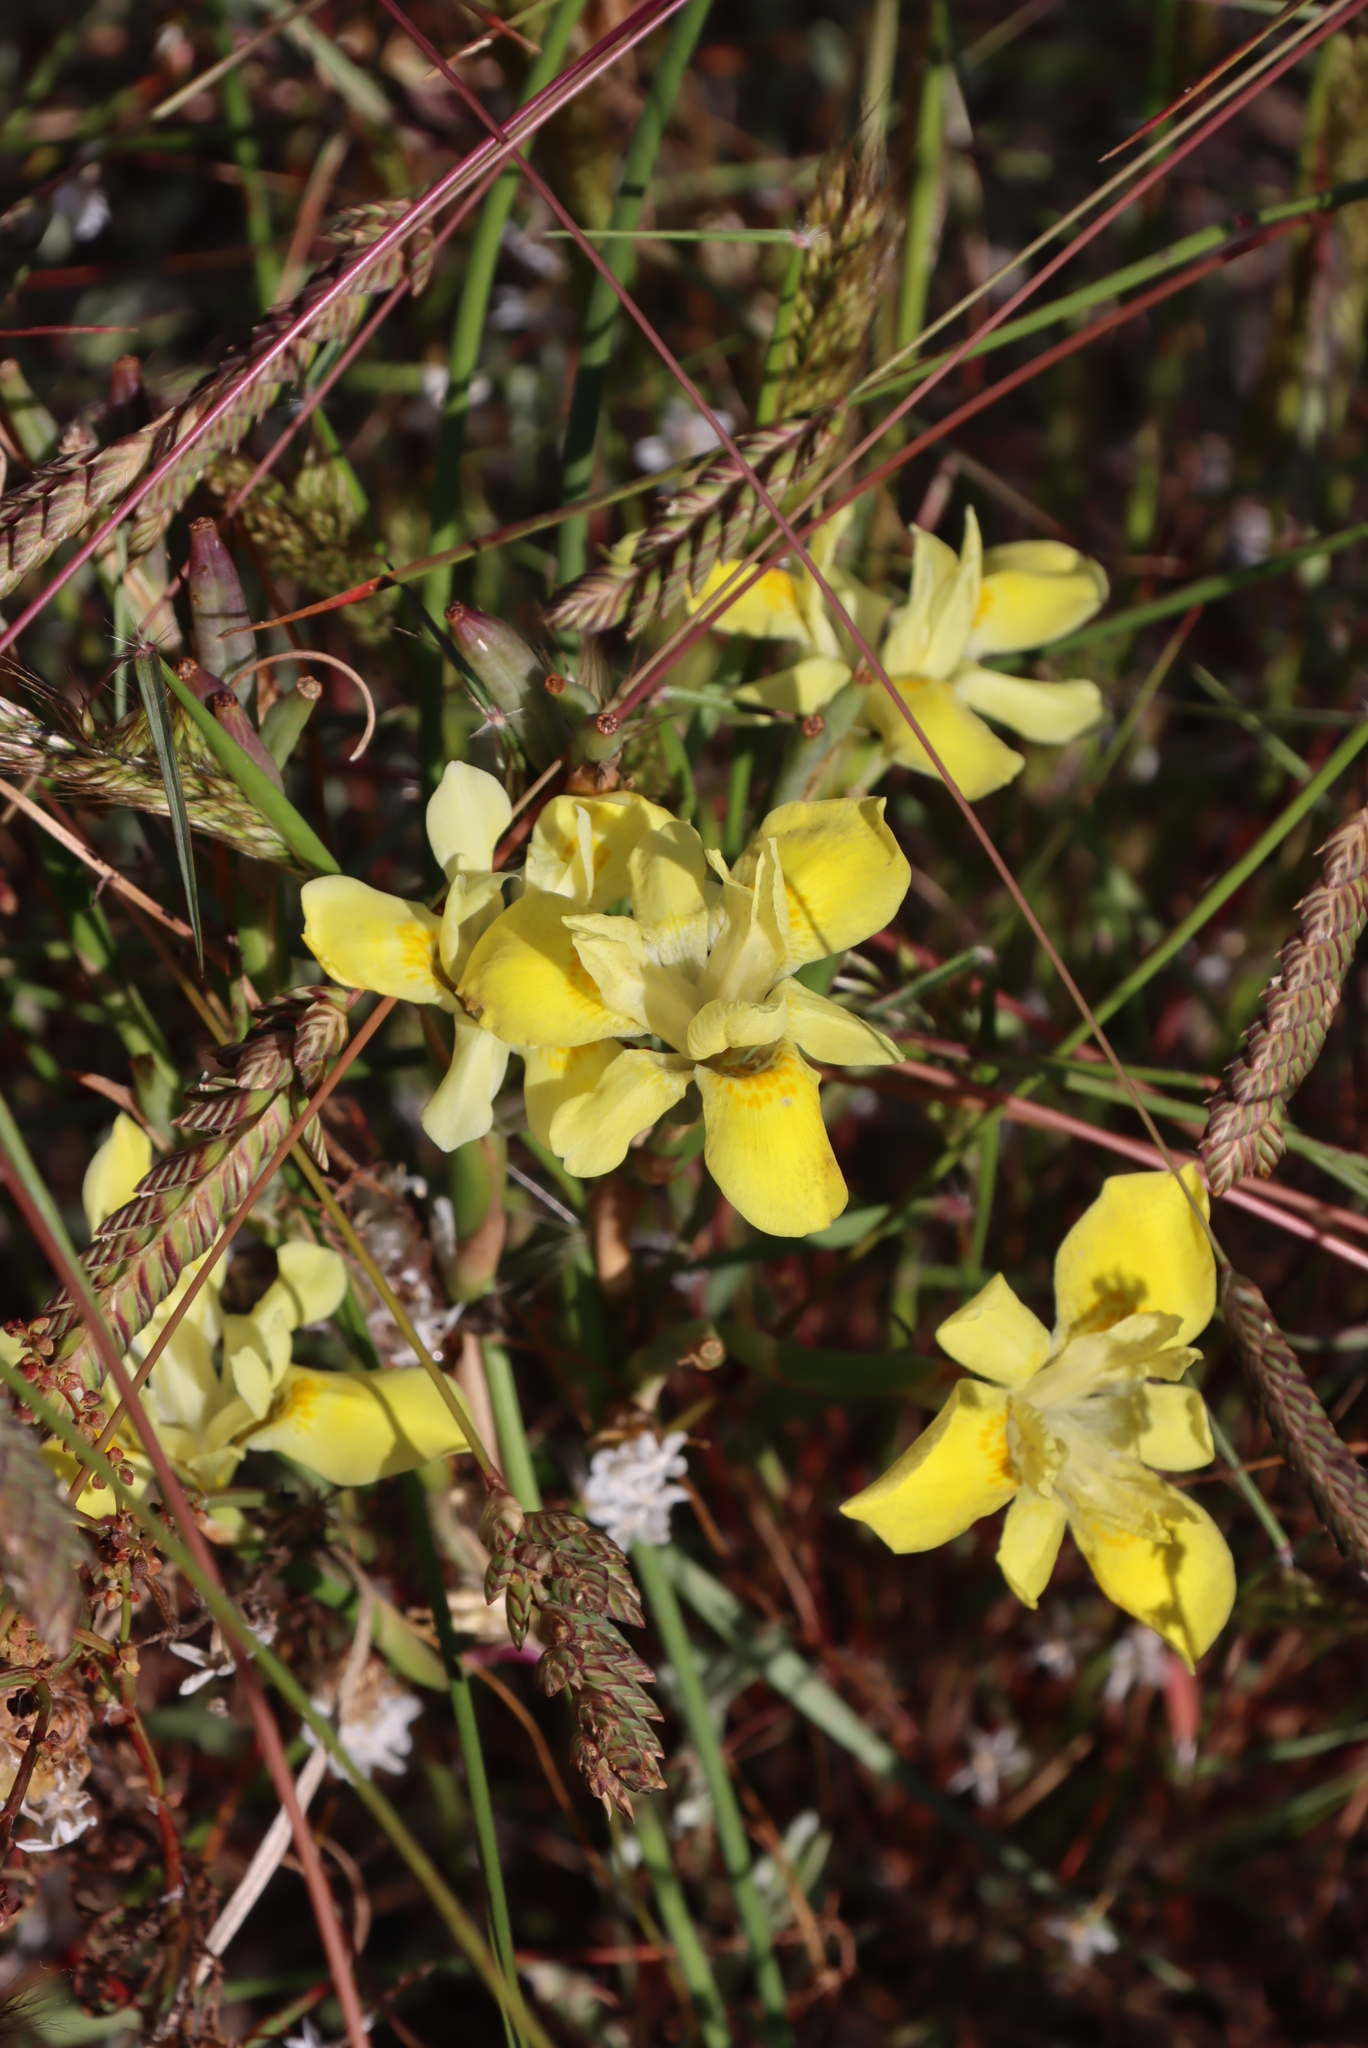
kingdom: Plantae
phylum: Tracheophyta
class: Liliopsida
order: Poales
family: Poaceae
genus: Tribolium
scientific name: Tribolium uniolae
